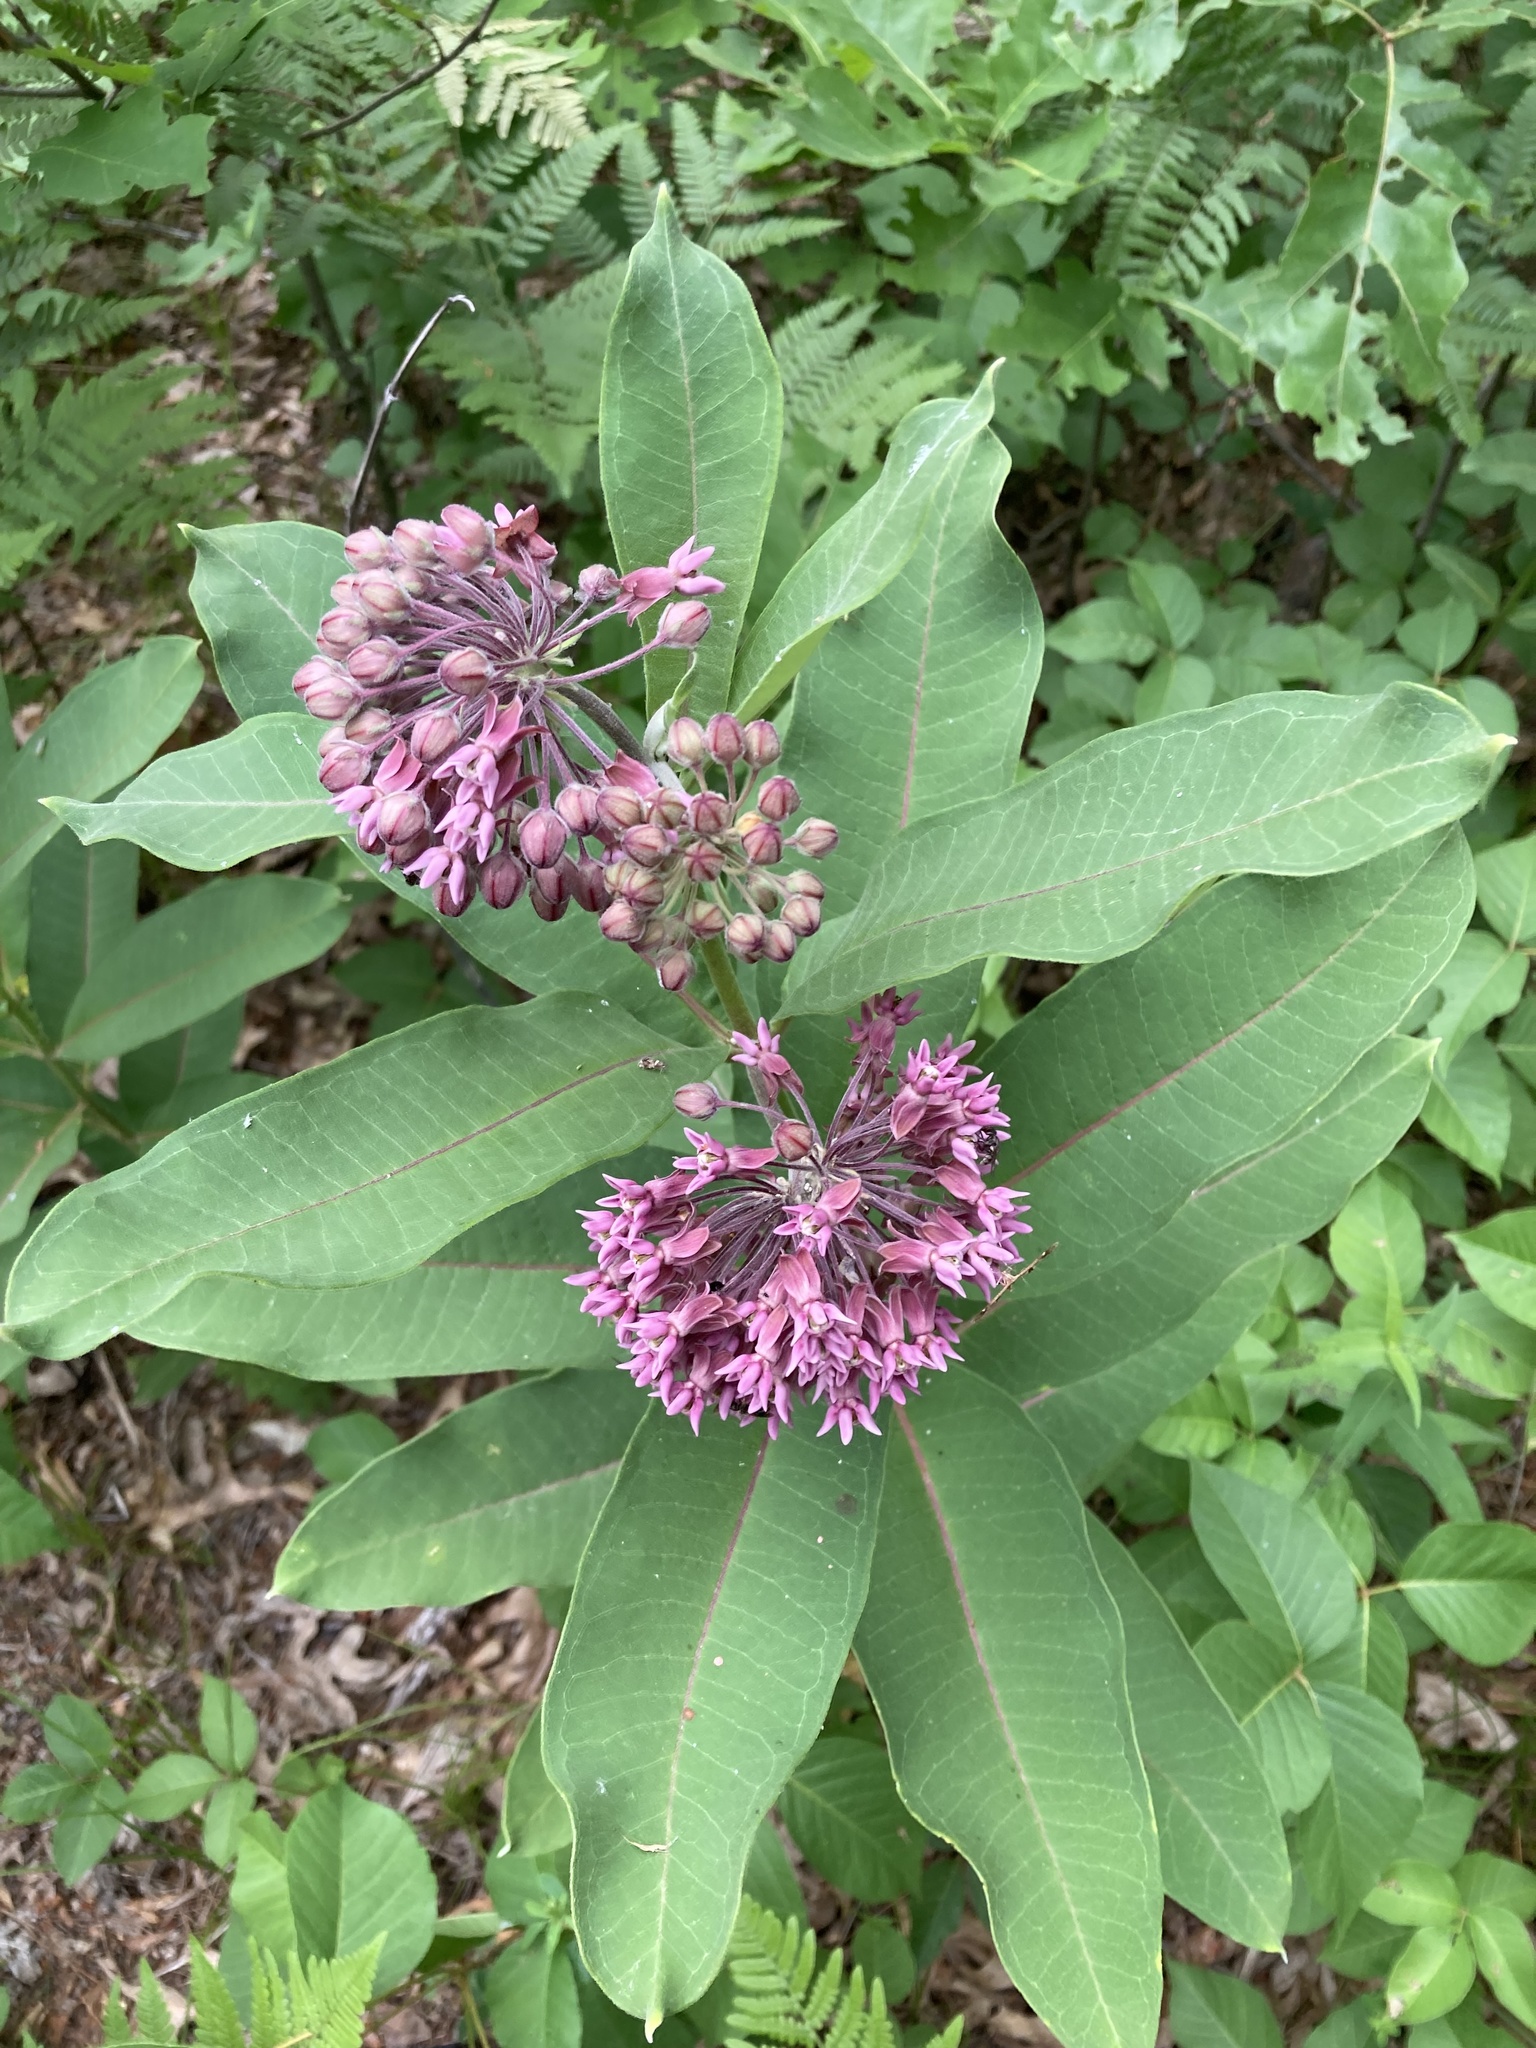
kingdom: Plantae
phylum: Tracheophyta
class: Magnoliopsida
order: Gentianales
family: Apocynaceae
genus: Asclepias
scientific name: Asclepias syriaca
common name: Common milkweed
